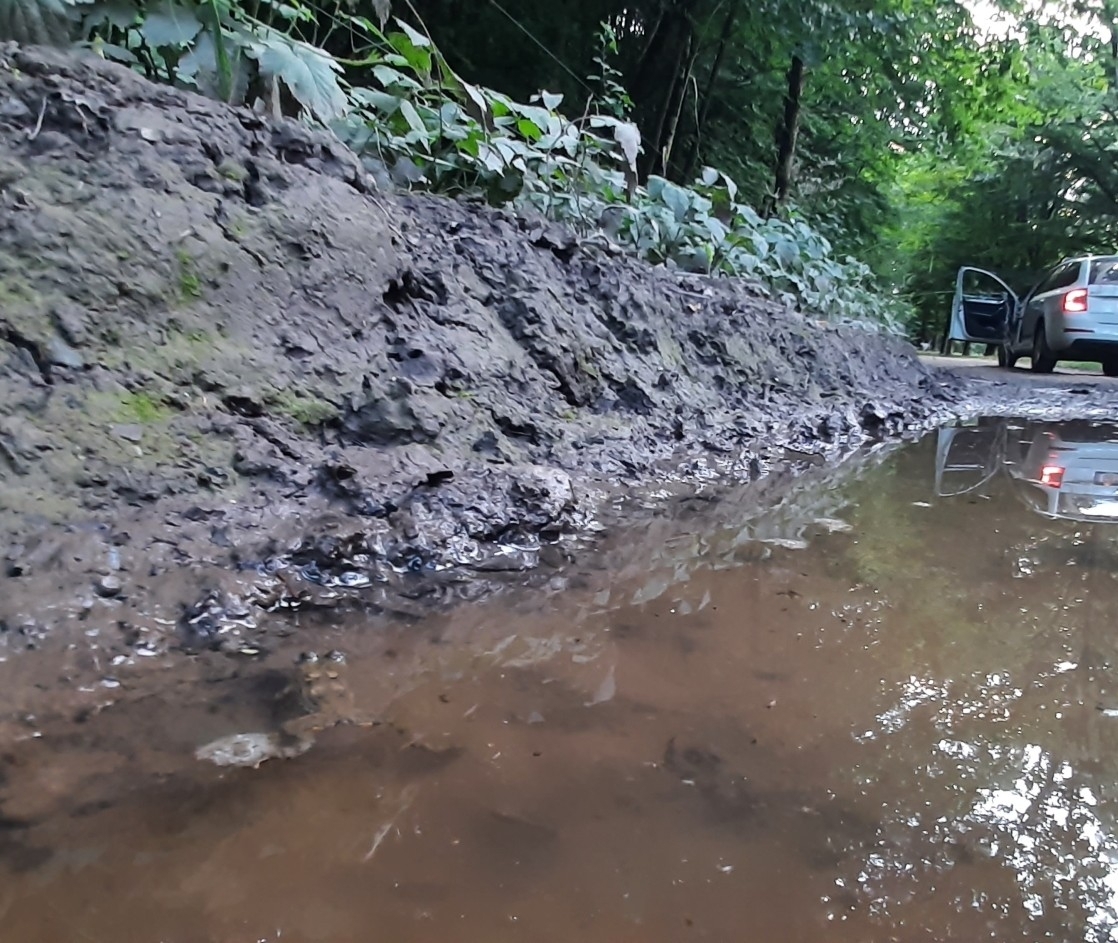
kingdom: Animalia
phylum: Chordata
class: Amphibia
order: Anura
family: Bombinatoridae
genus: Bombina
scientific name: Bombina variegata
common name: Yellow-bellied toad
